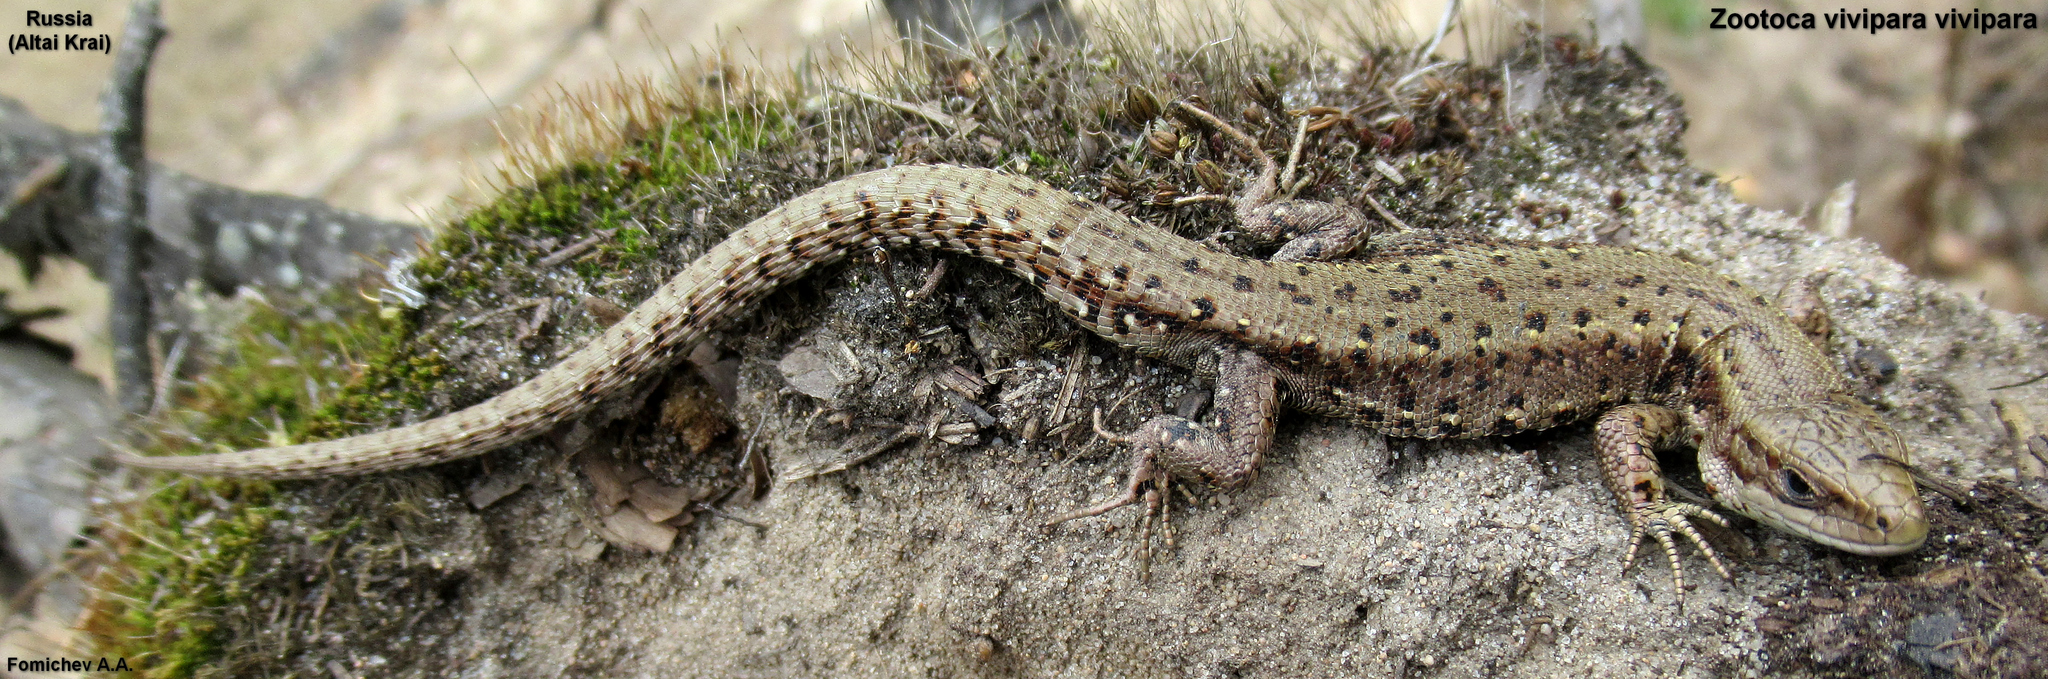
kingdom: Animalia
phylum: Chordata
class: Squamata
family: Lacertidae
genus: Zootoca
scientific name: Zootoca vivipara
